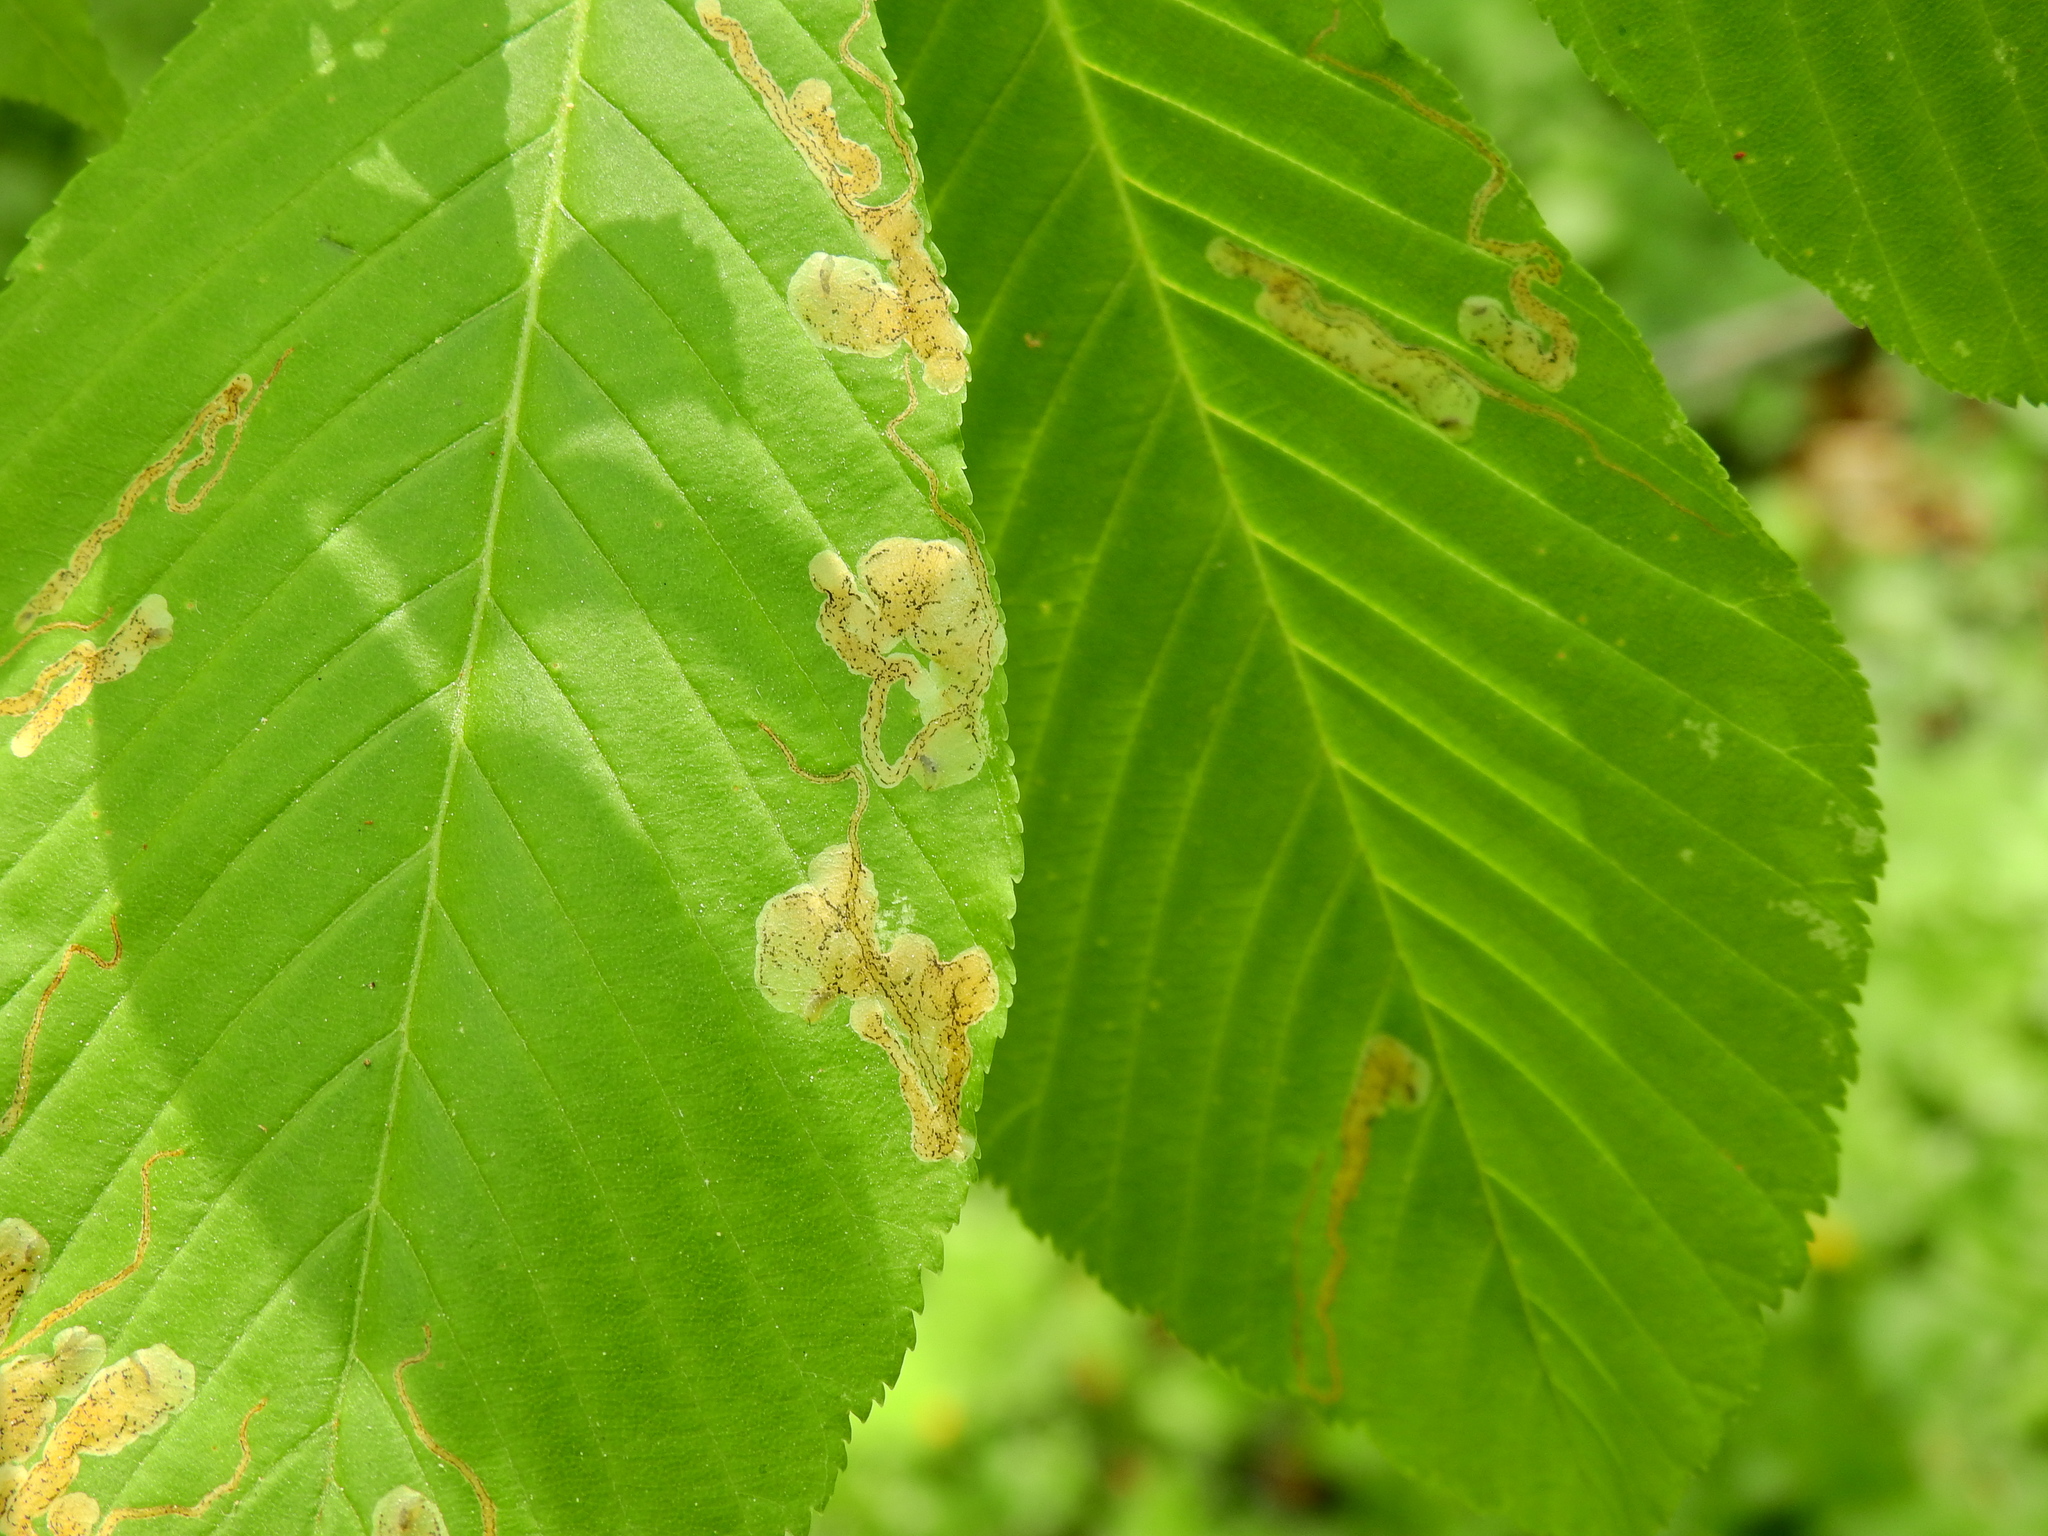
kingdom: Animalia
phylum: Arthropoda
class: Insecta
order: Diptera
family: Agromyzidae
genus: Phytomyza
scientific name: Phytomyza aesculi
